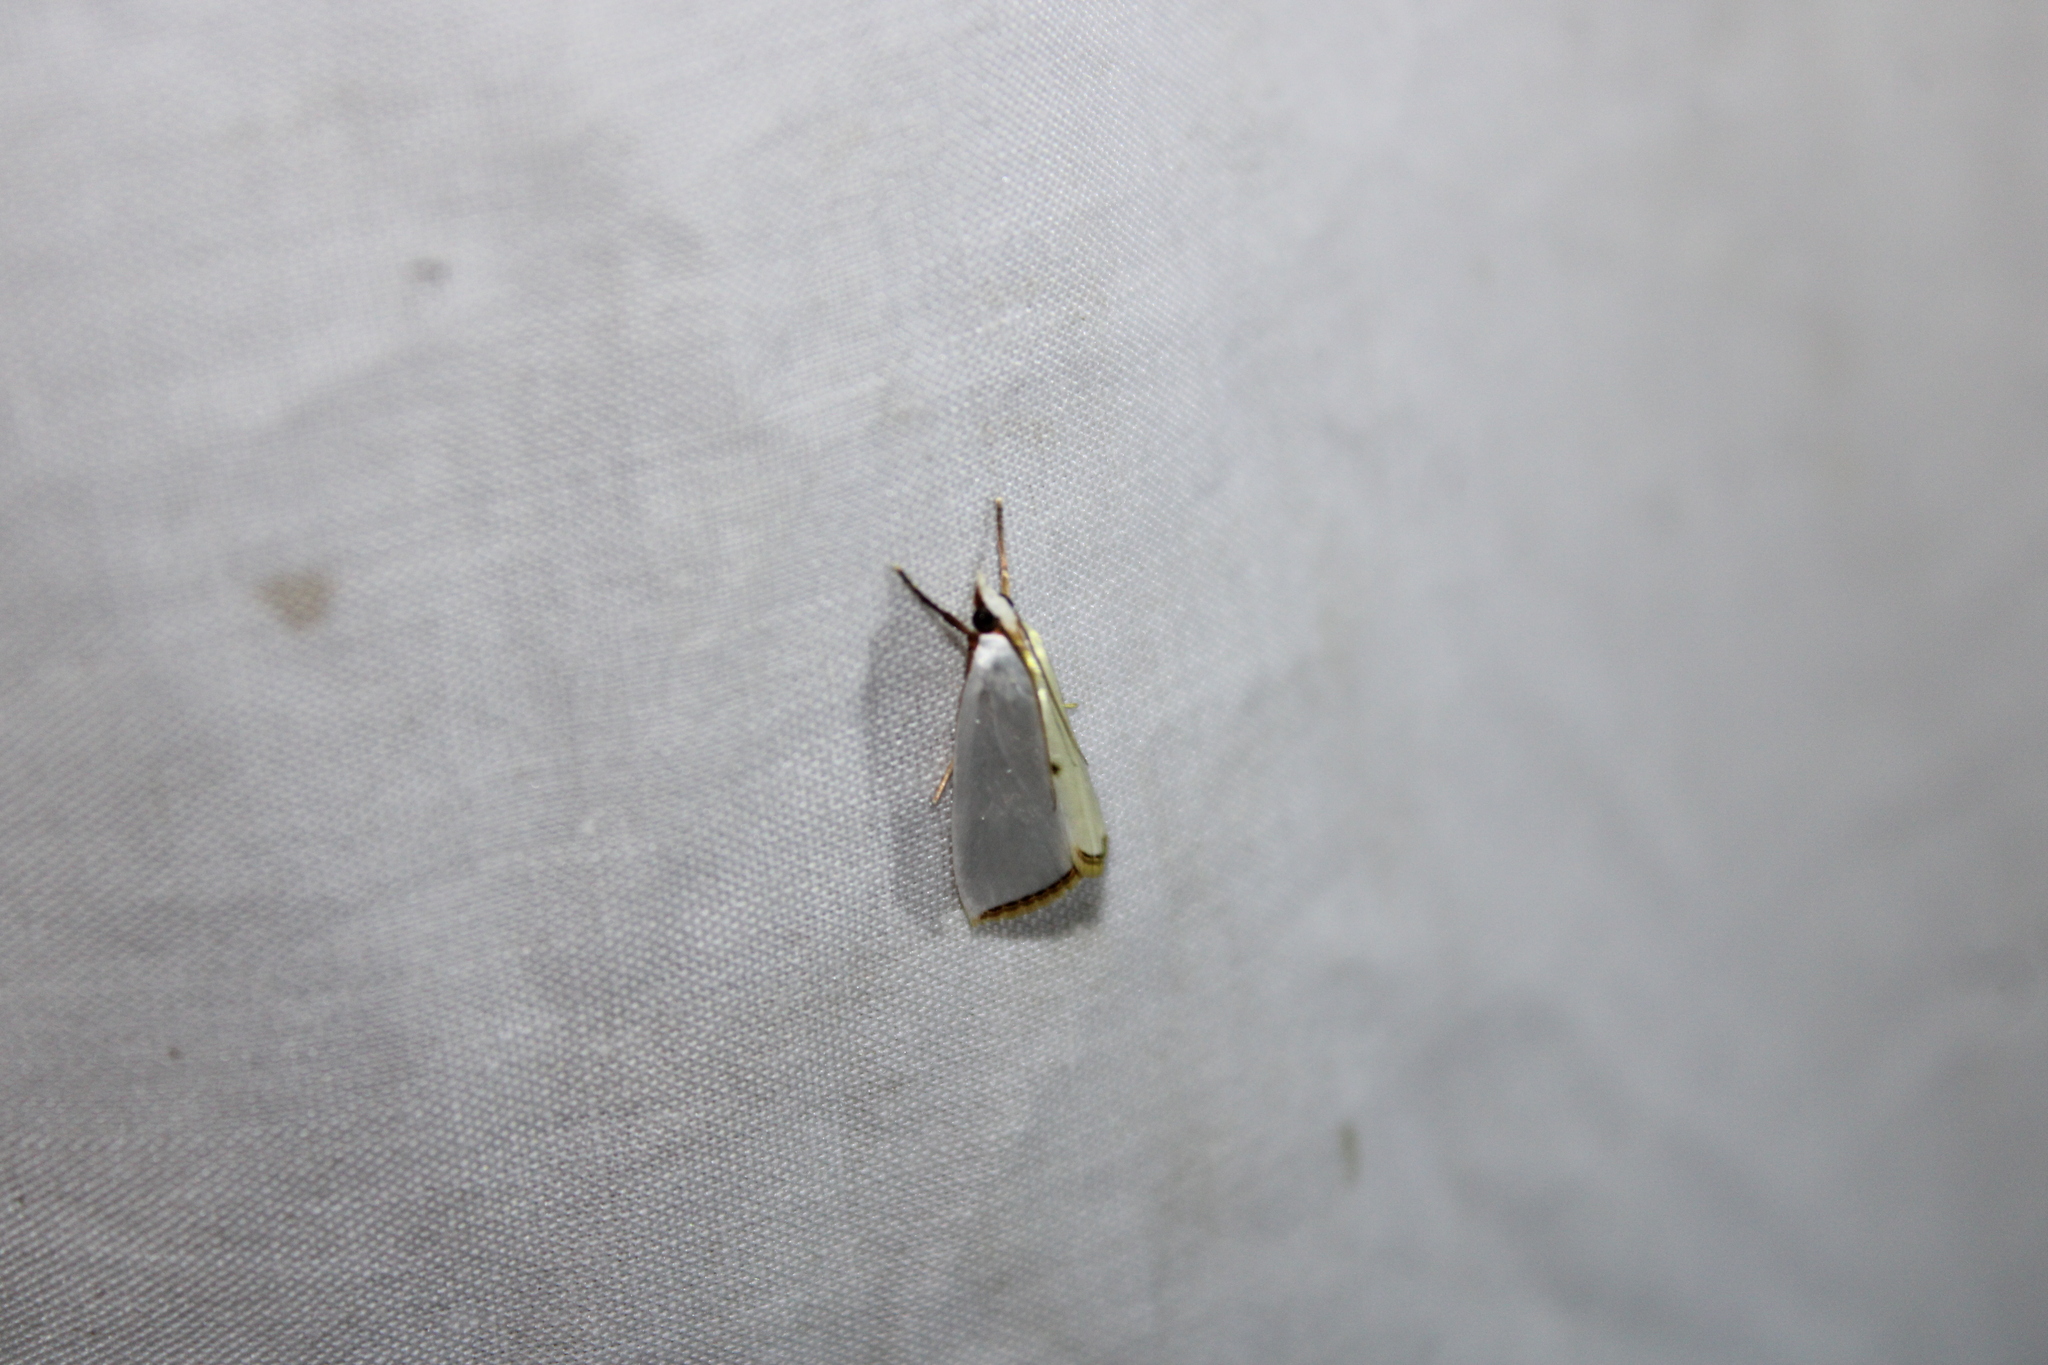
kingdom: Animalia
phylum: Arthropoda
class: Insecta
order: Lepidoptera
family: Crambidae
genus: Argyria
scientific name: Argyria nivalis
